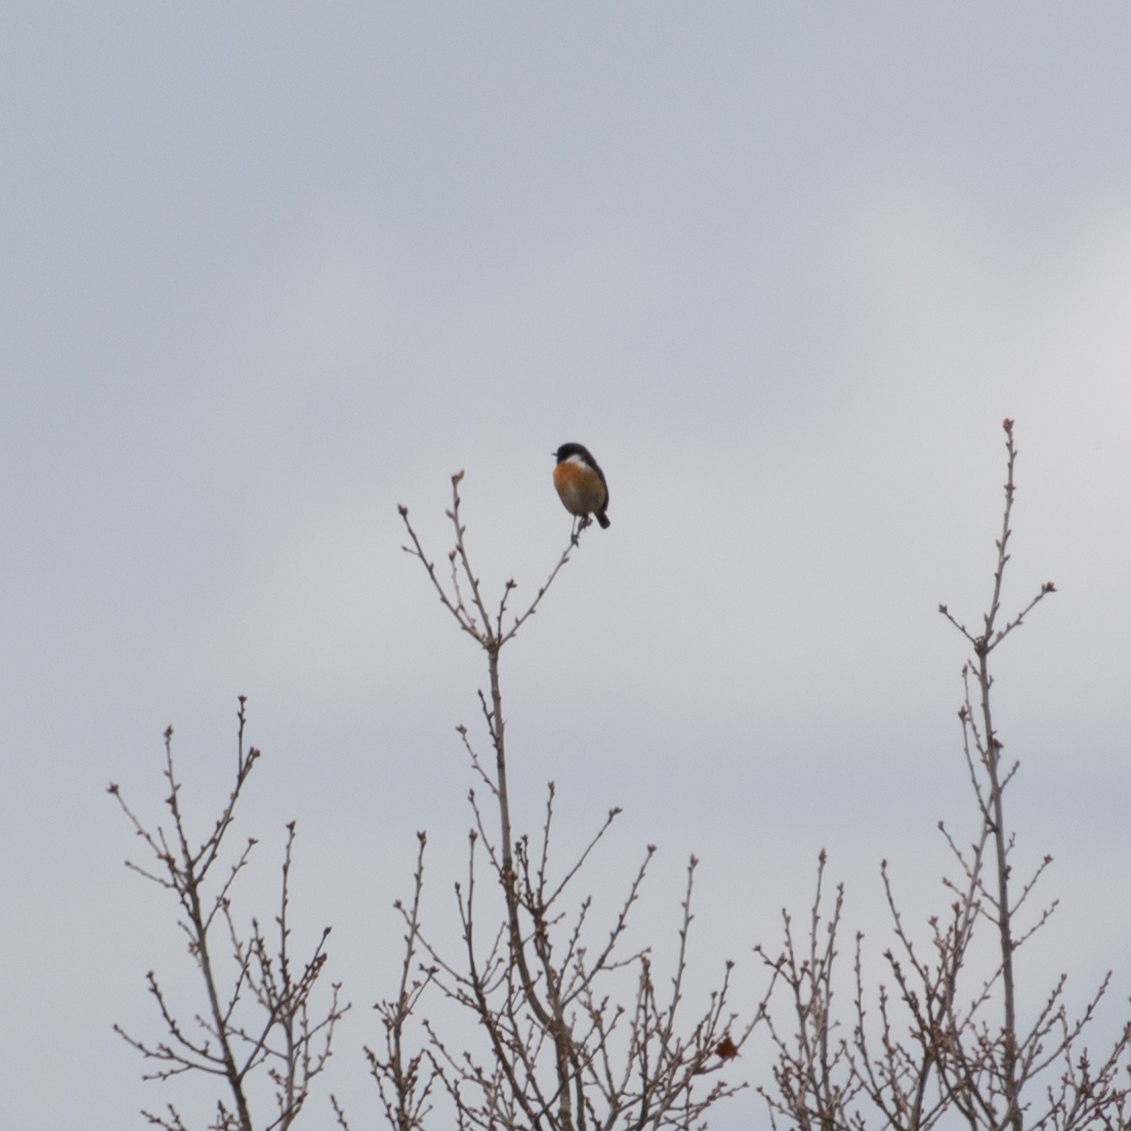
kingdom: Animalia
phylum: Chordata
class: Aves
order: Passeriformes
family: Muscicapidae
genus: Saxicola
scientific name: Saxicola rubicola
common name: European stonechat
